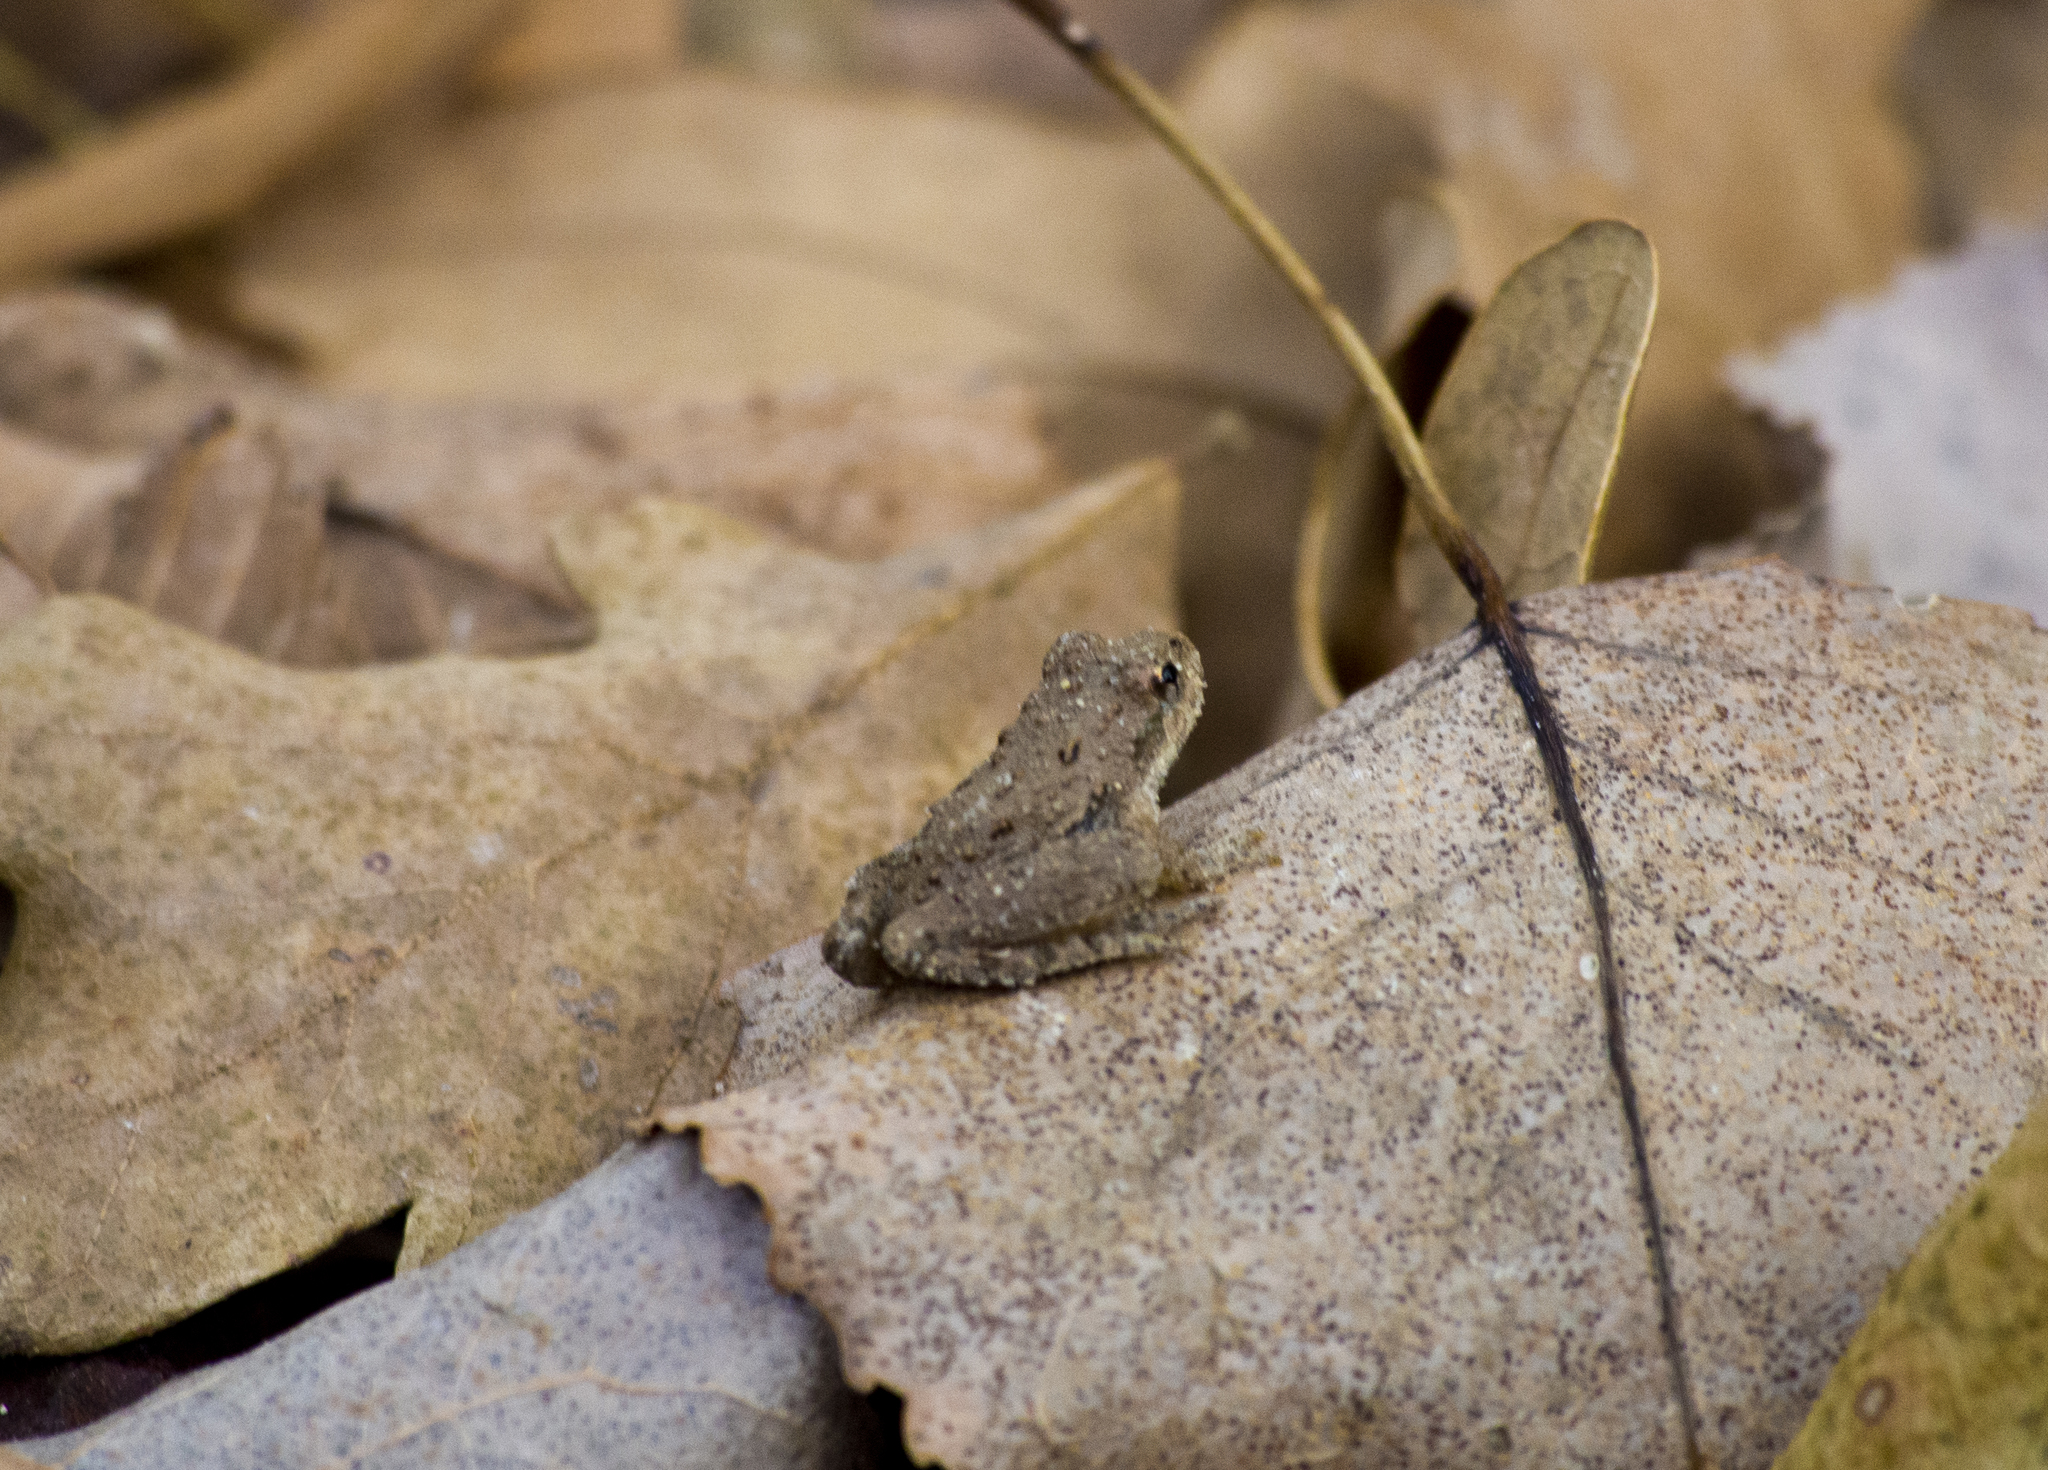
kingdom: Animalia
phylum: Chordata
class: Amphibia
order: Anura
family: Hylidae
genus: Acris
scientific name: Acris blanchardi
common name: Blanchard's cricket frog
